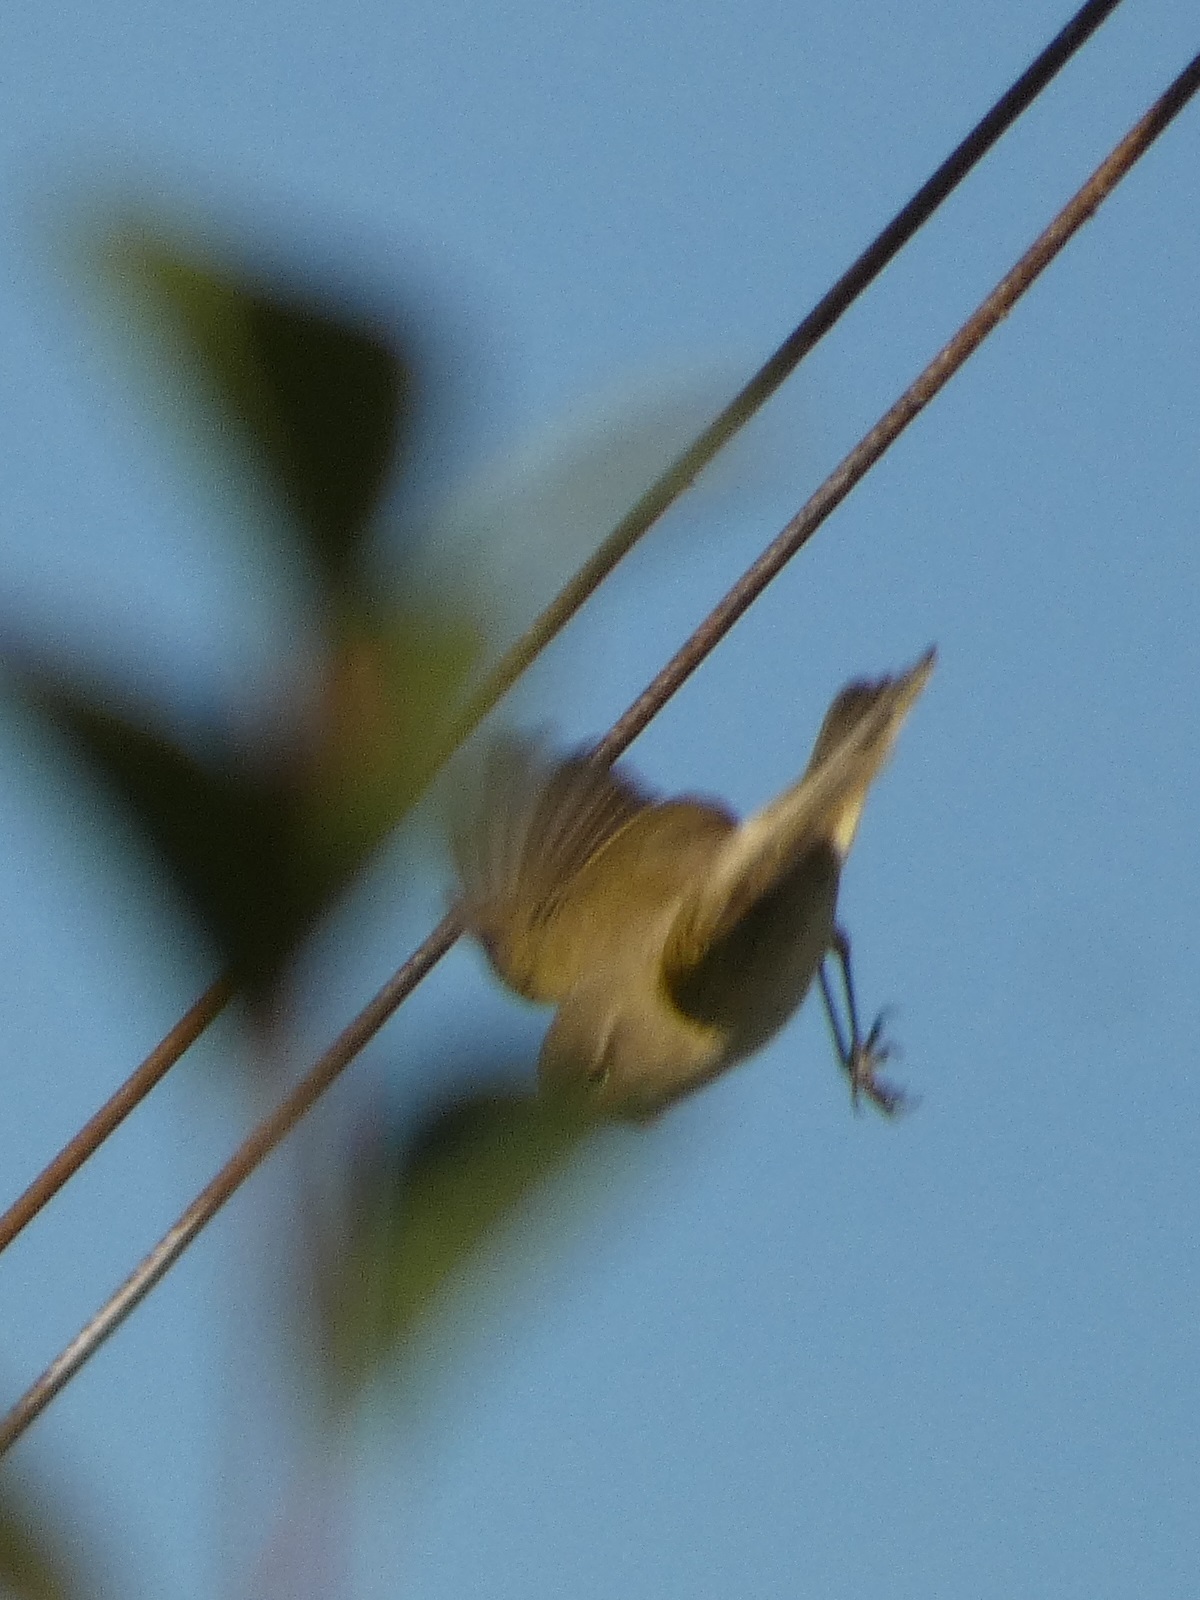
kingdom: Animalia
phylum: Chordata
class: Aves
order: Passeriformes
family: Phylloscopidae
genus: Phylloscopus
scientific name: Phylloscopus collybita
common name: Common chiffchaff
